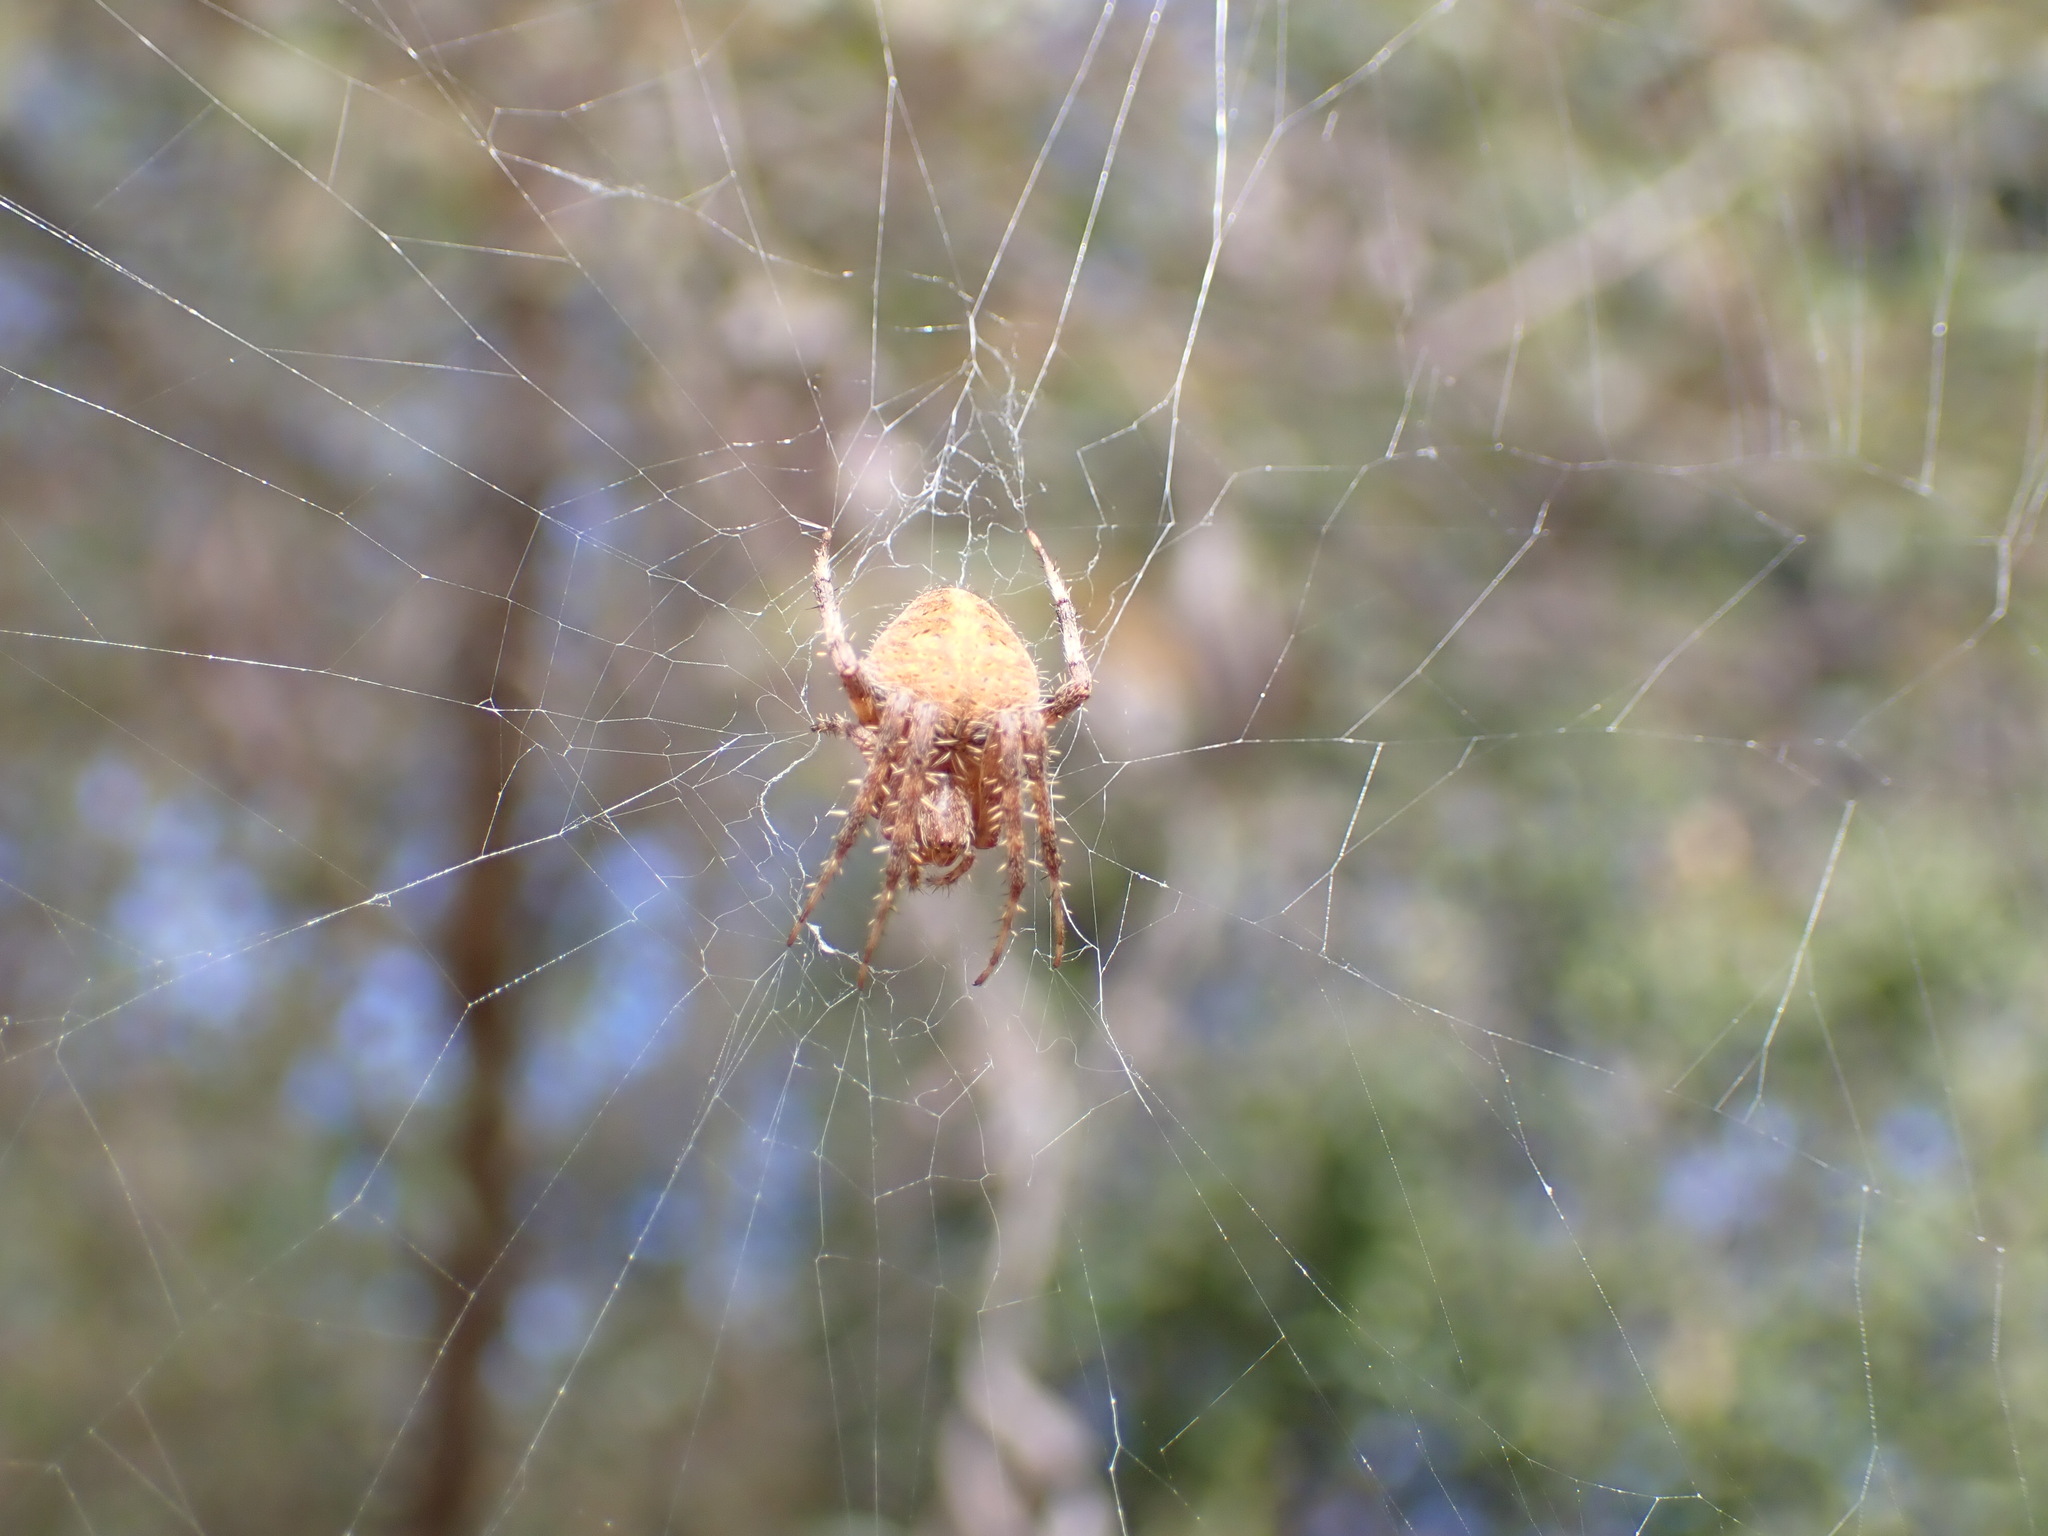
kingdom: Animalia
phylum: Arthropoda
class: Arachnida
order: Araneae
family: Araneidae
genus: Neoscona
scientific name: Neoscona crucifera
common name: Spotted orbweaver
